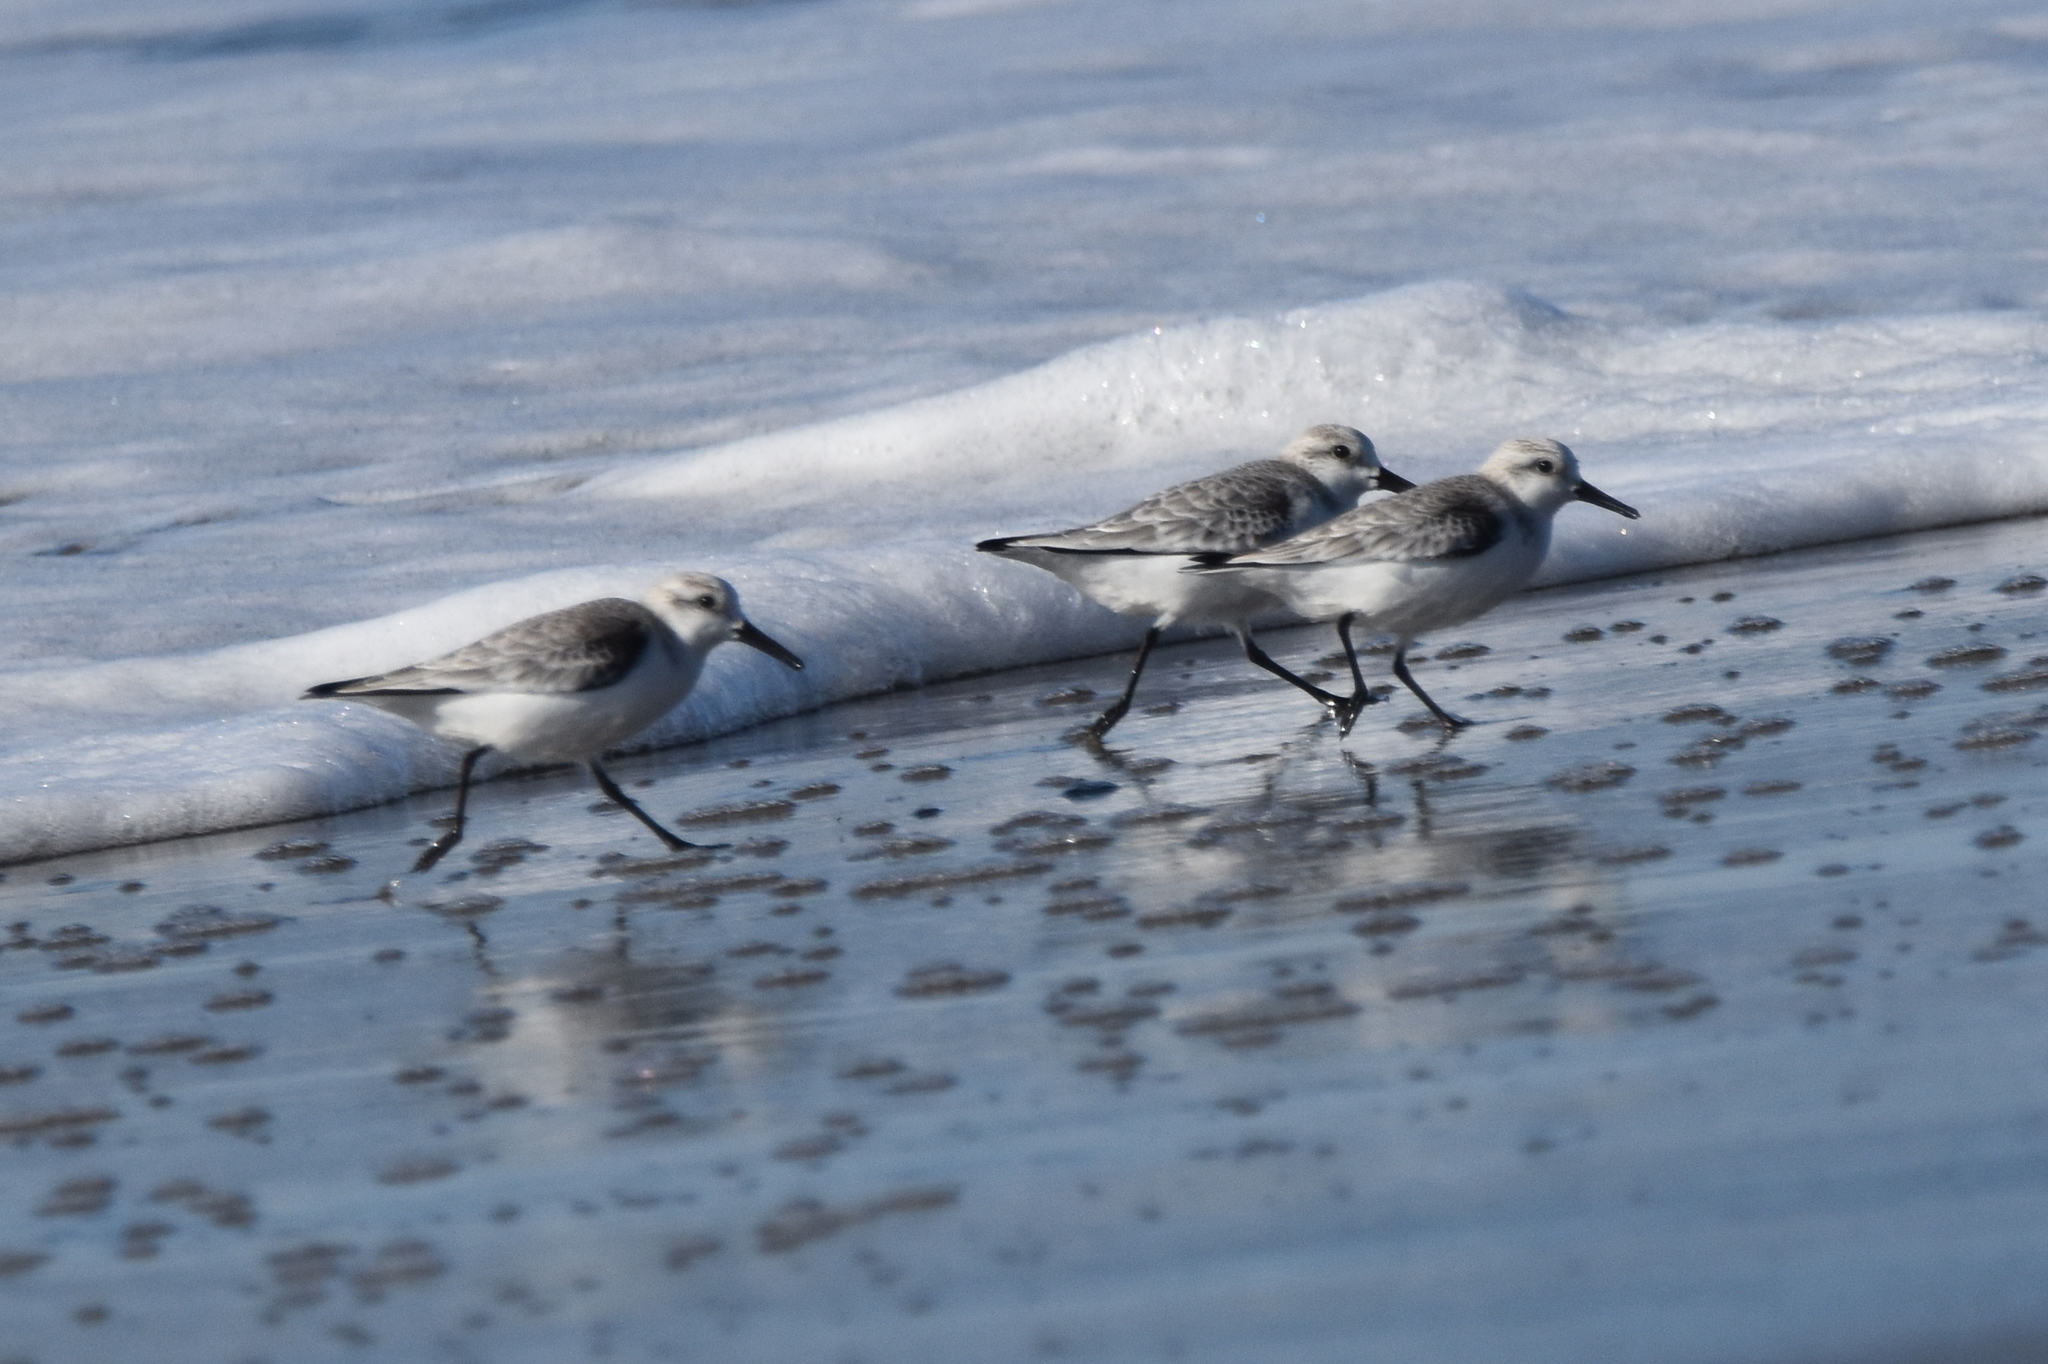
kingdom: Animalia
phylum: Chordata
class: Aves
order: Charadriiformes
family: Scolopacidae
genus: Calidris
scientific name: Calidris alba
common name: Sanderling
